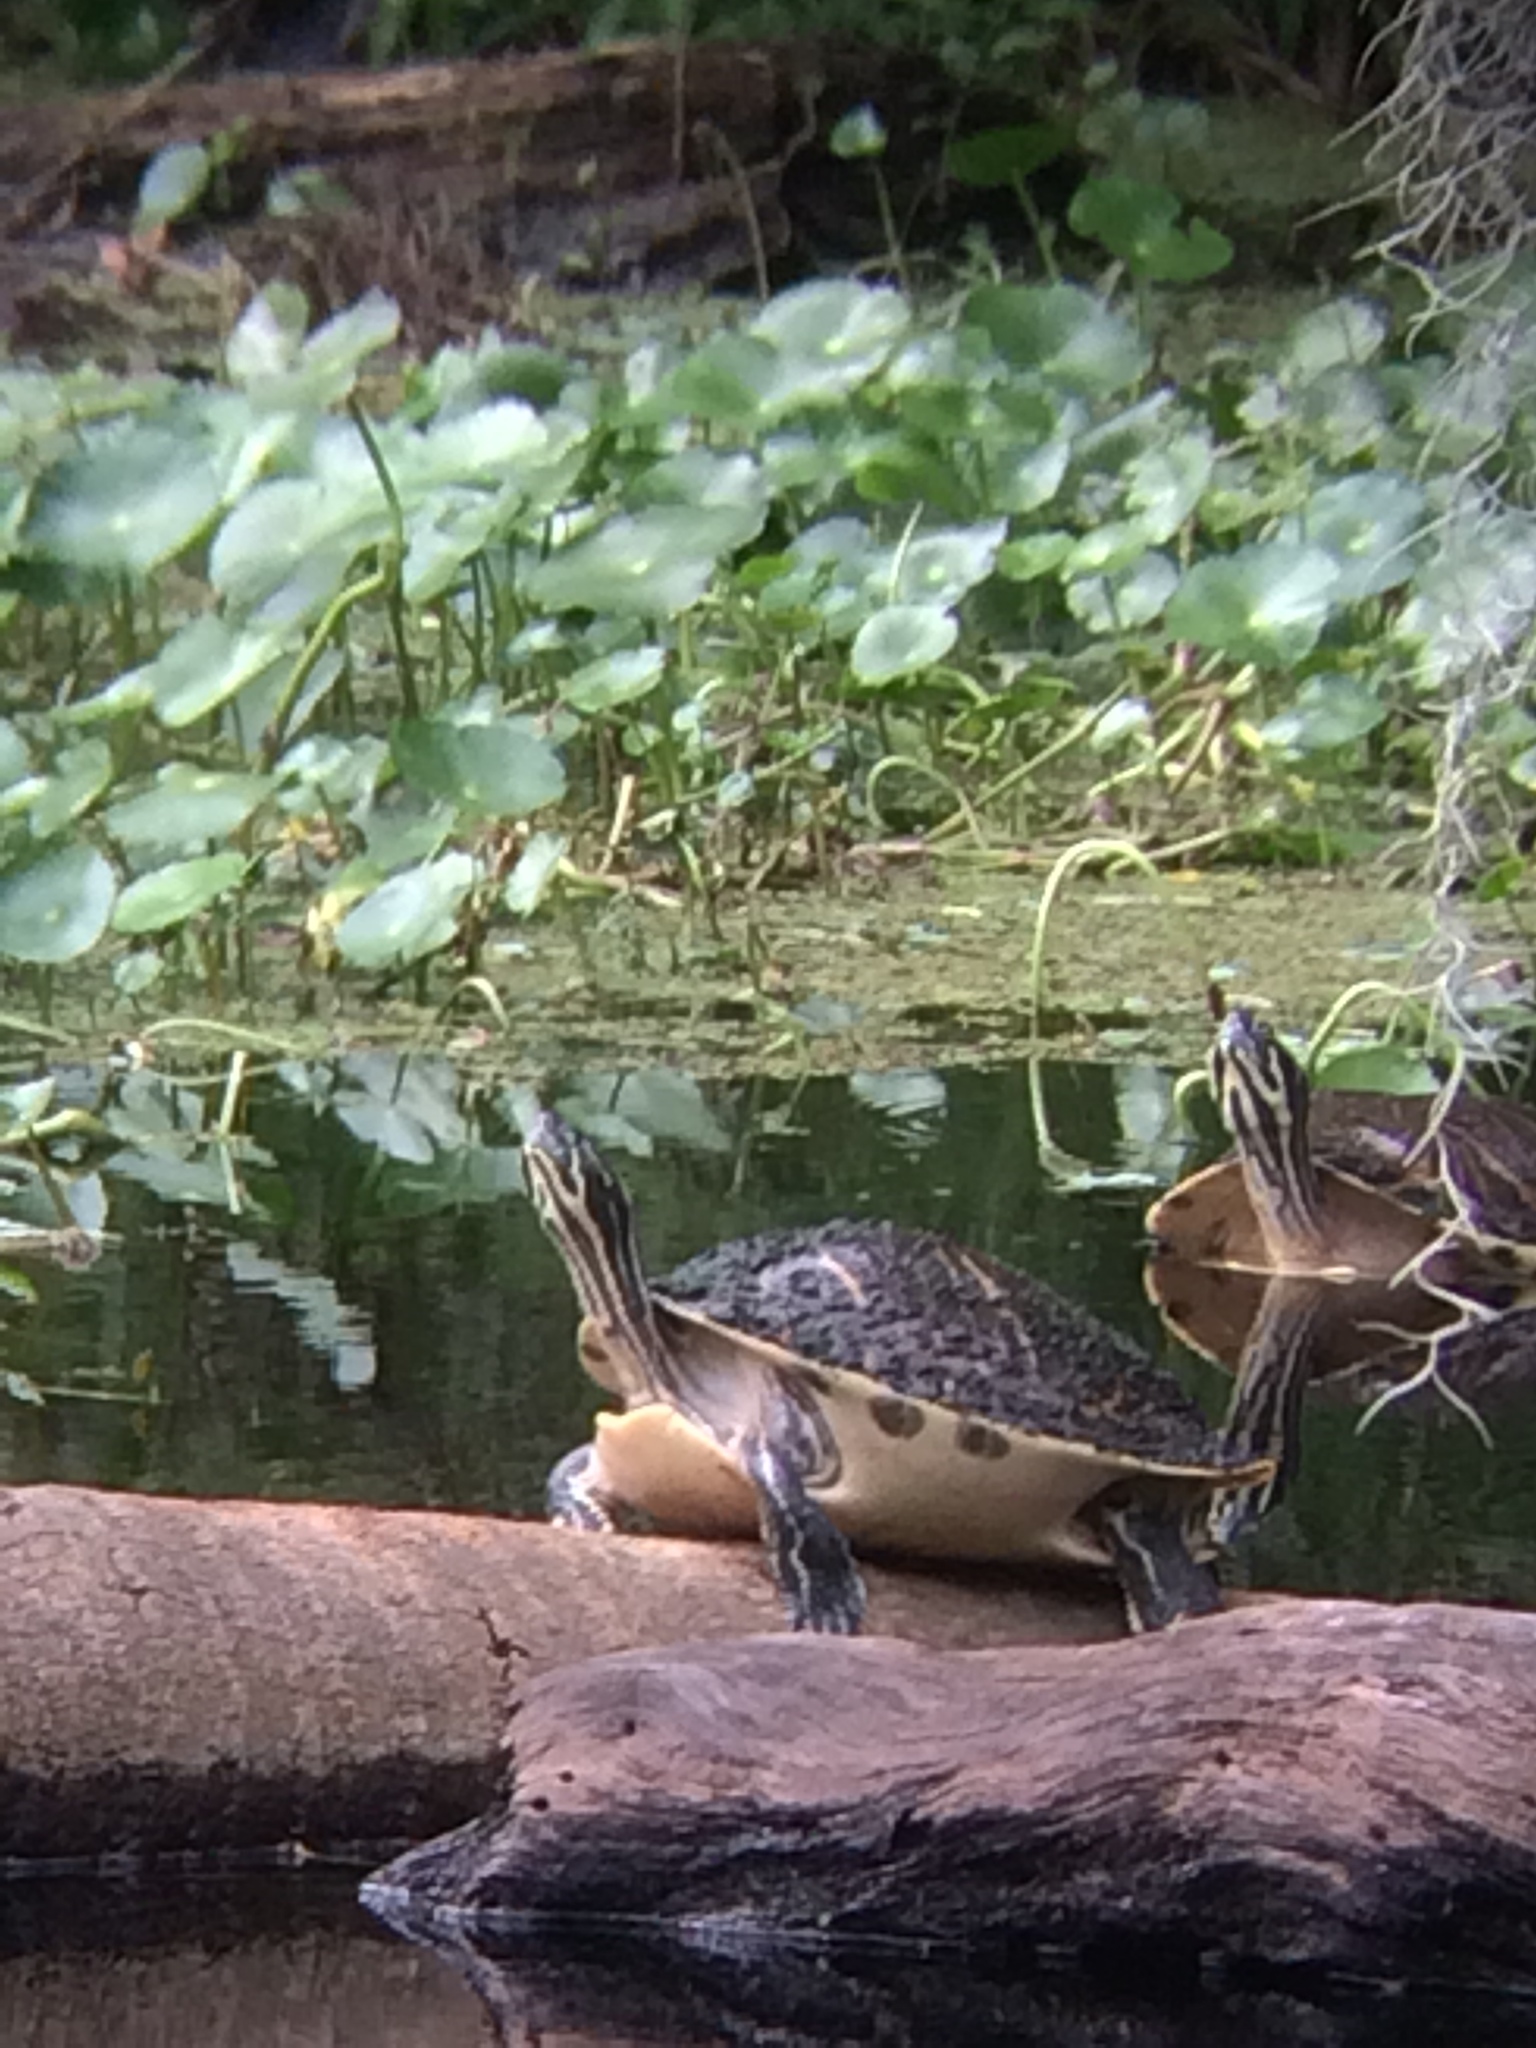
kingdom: Animalia
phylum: Chordata
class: Testudines
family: Emydidae
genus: Pseudemys
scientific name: Pseudemys peninsularis
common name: Peninsula cooter
